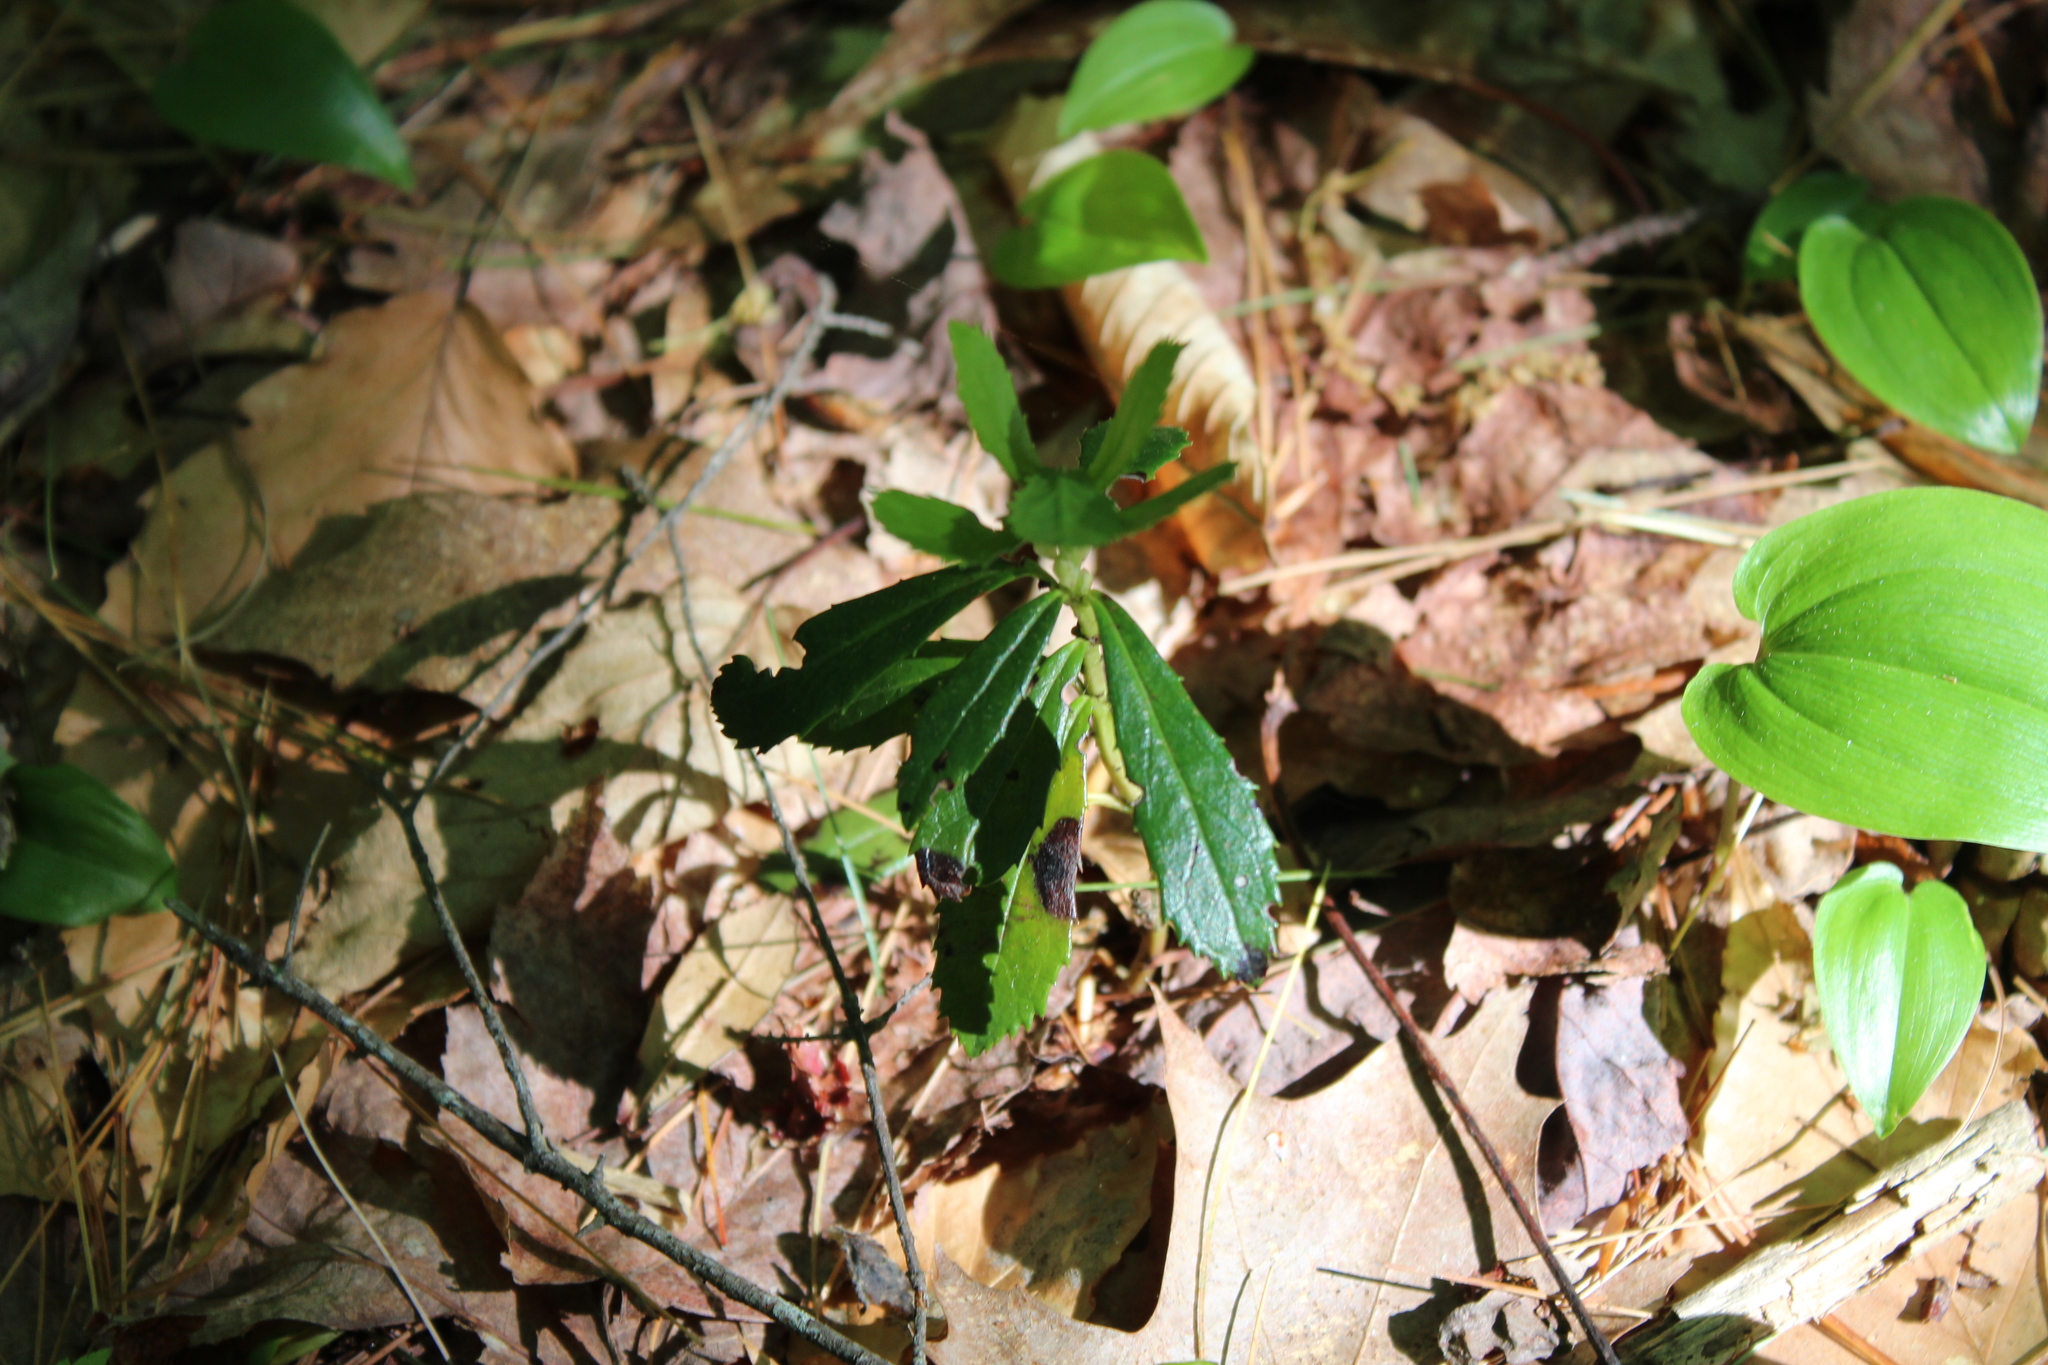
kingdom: Plantae
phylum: Tracheophyta
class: Magnoliopsida
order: Ericales
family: Ericaceae
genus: Chimaphila
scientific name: Chimaphila umbellata
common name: Pipsissewa
